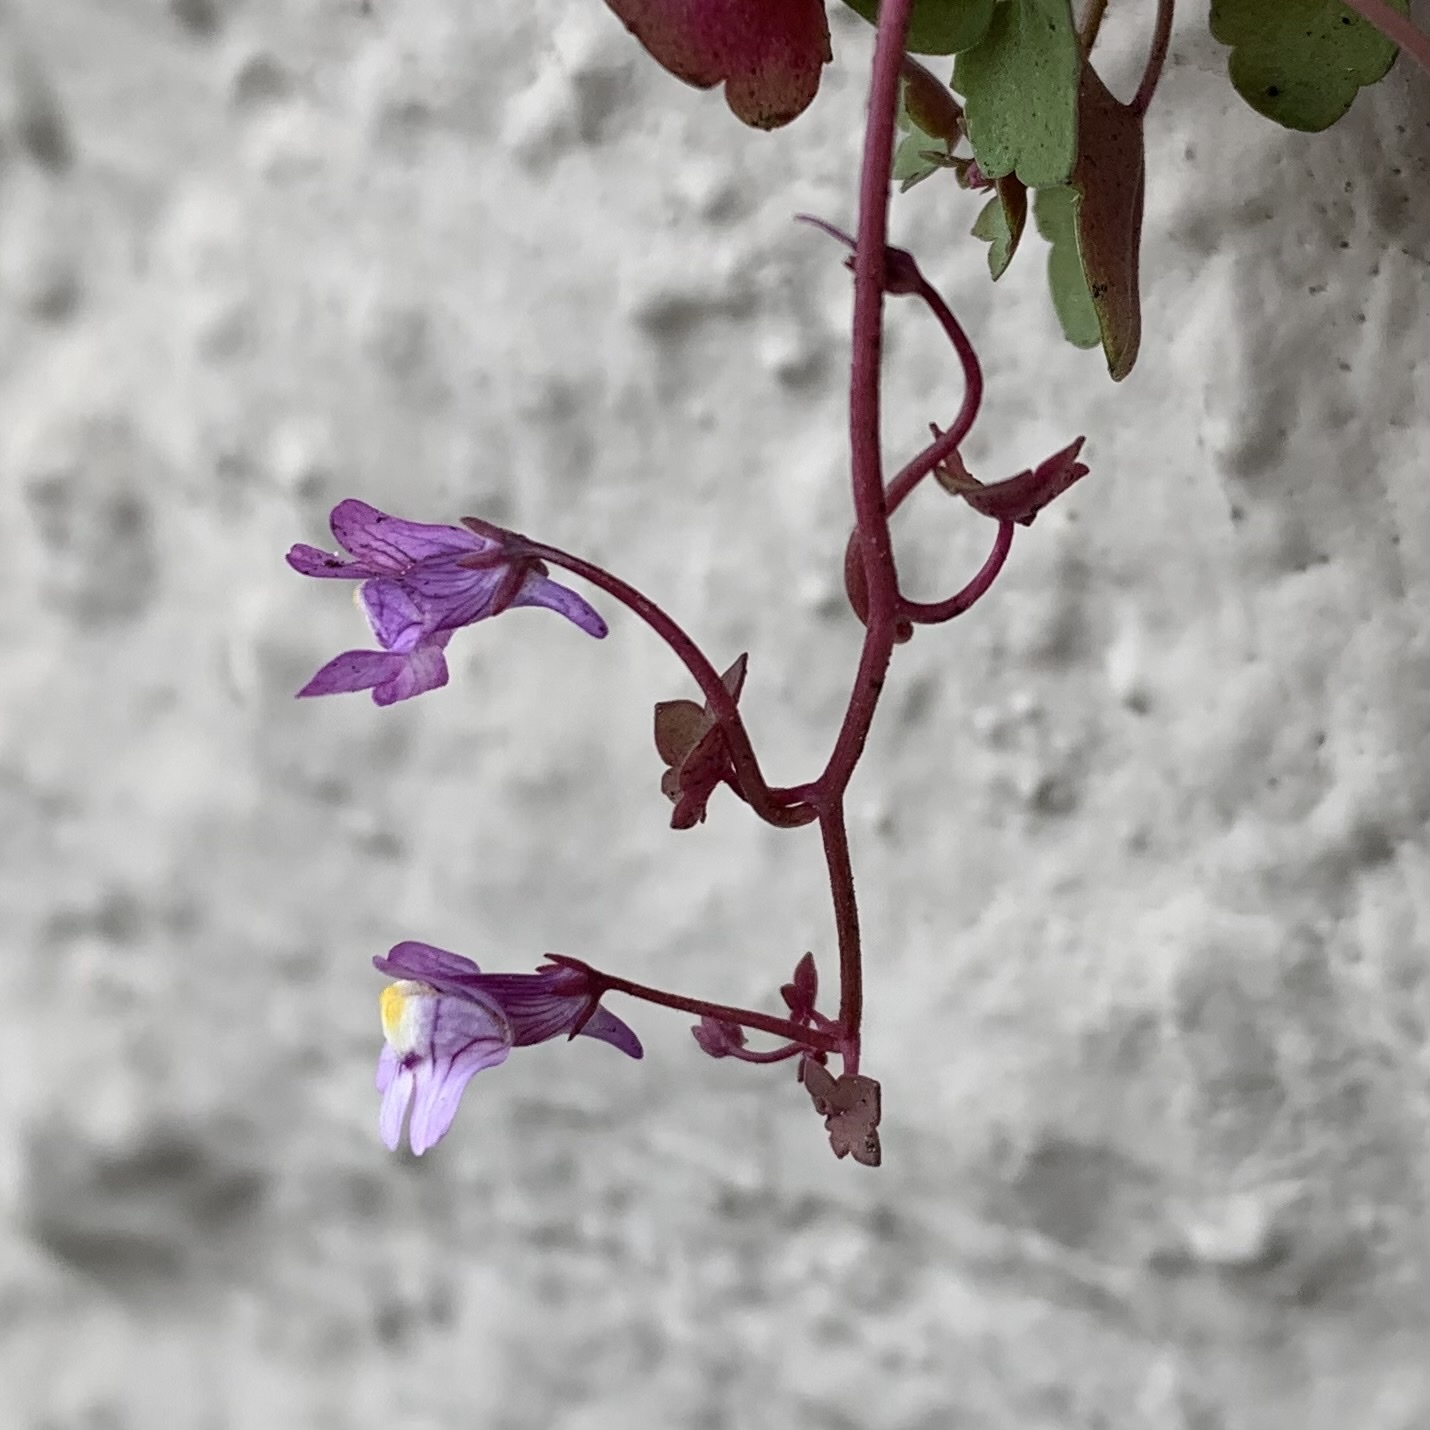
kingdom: Plantae
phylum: Tracheophyta
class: Magnoliopsida
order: Lamiales
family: Plantaginaceae
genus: Cymbalaria
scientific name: Cymbalaria muralis
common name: Ivy-leaved toadflax
